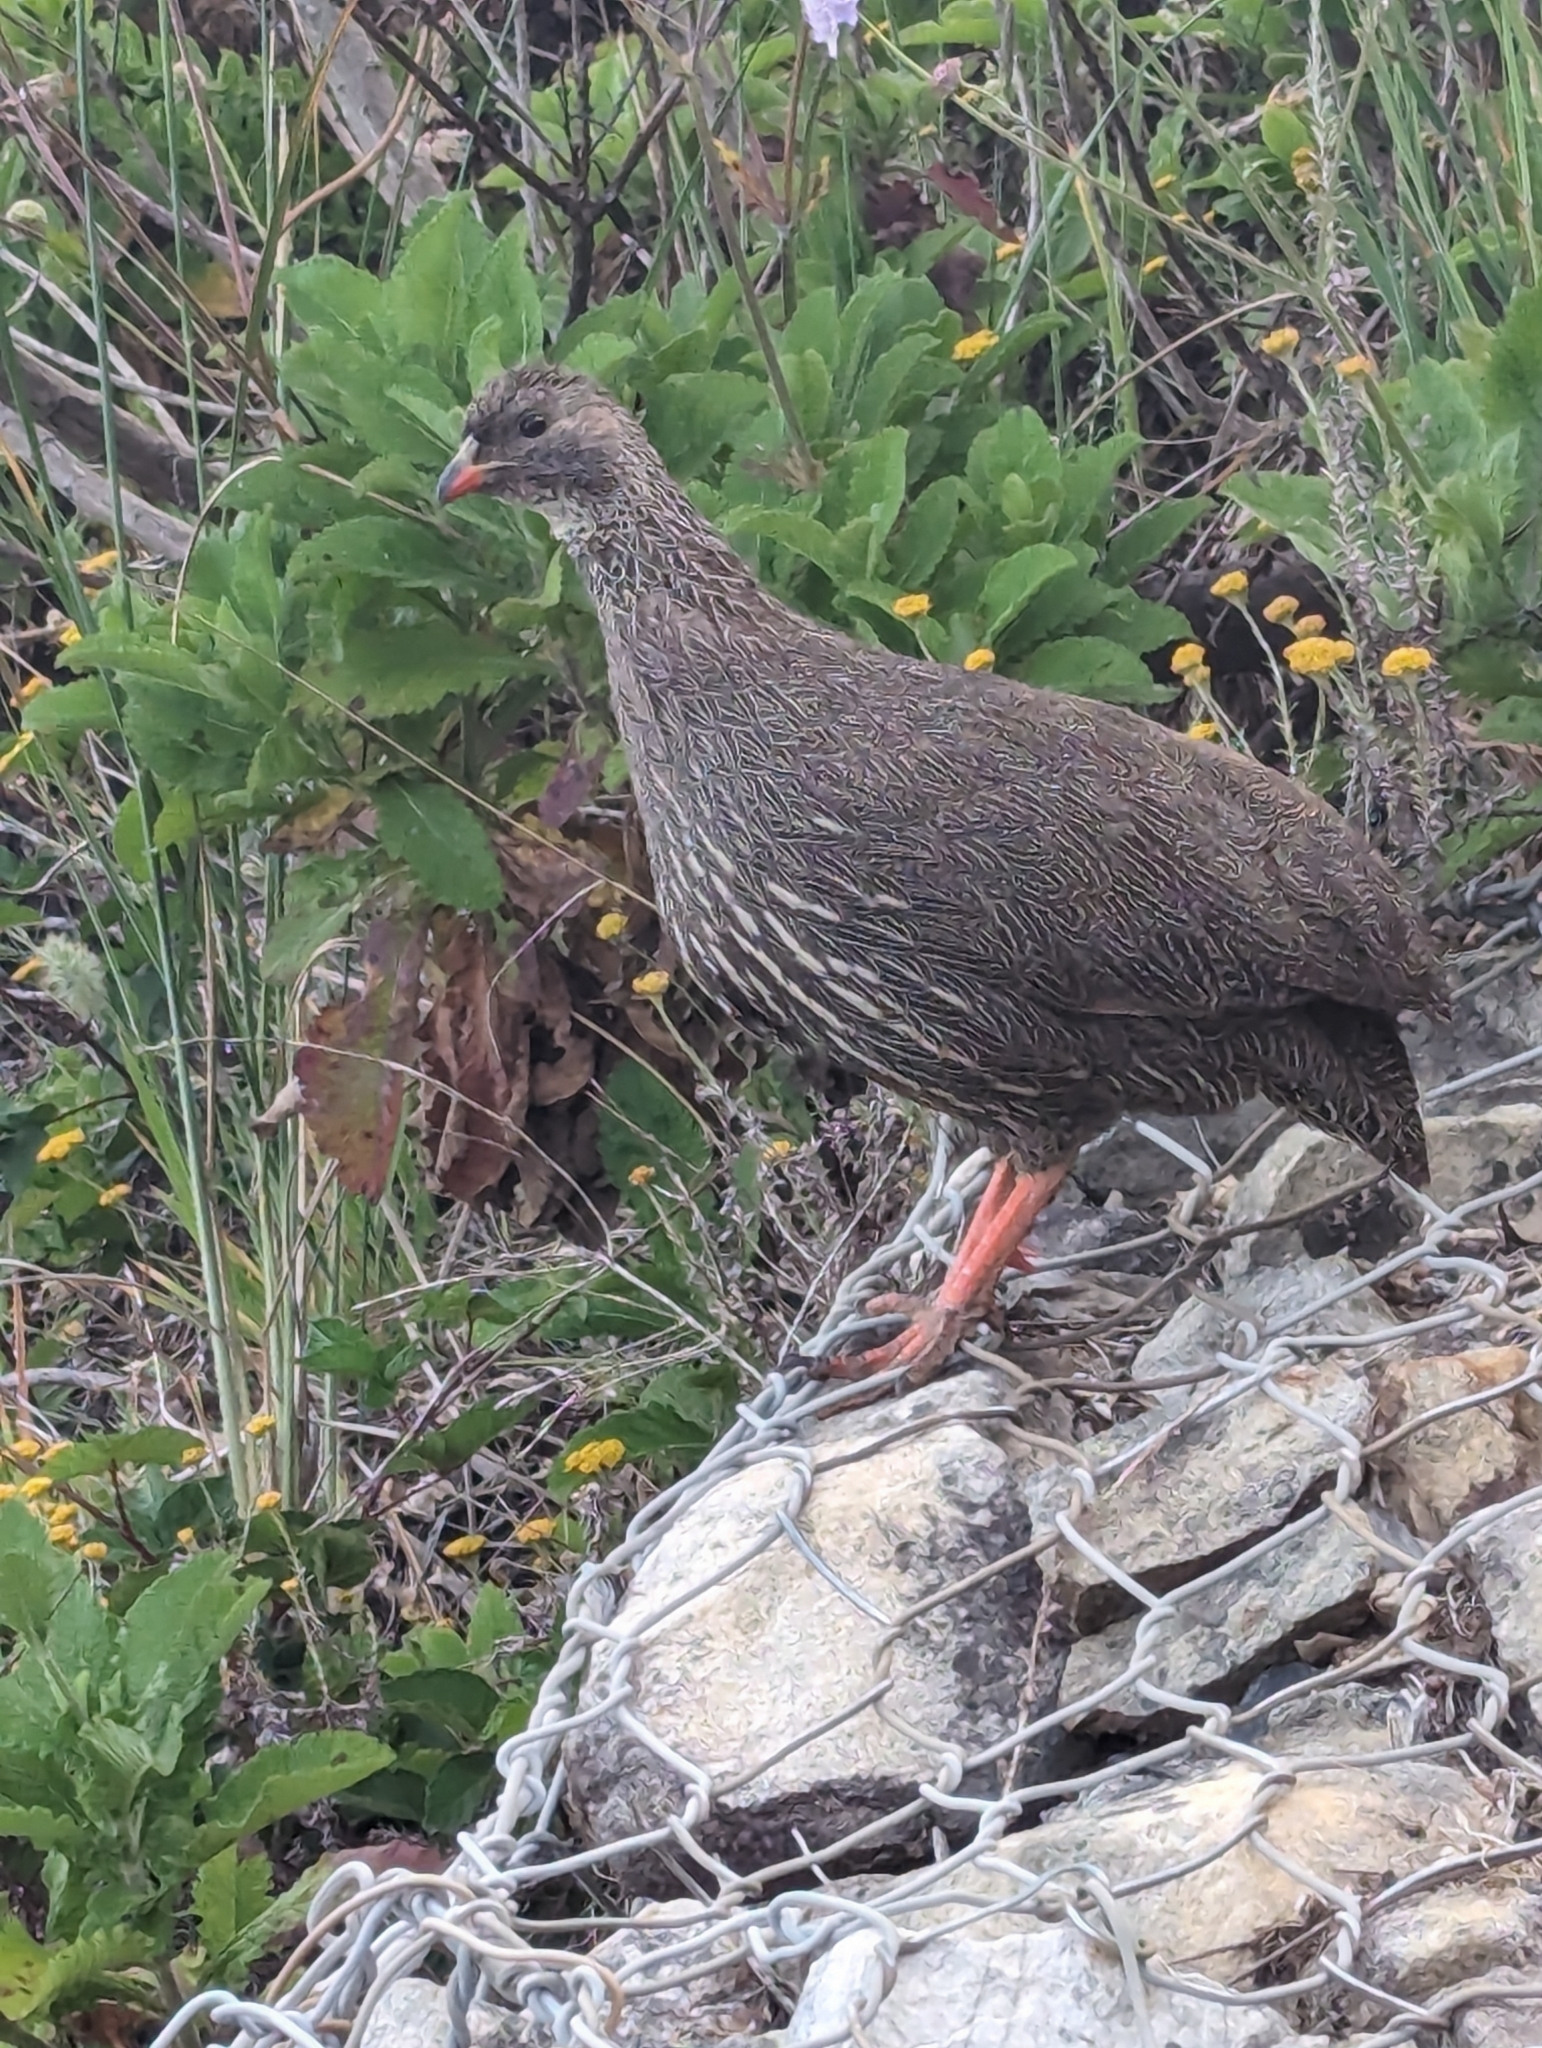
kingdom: Animalia
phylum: Chordata
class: Aves
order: Galliformes
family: Phasianidae
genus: Pternistis
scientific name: Pternistis capensis
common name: Cape spurfowl
